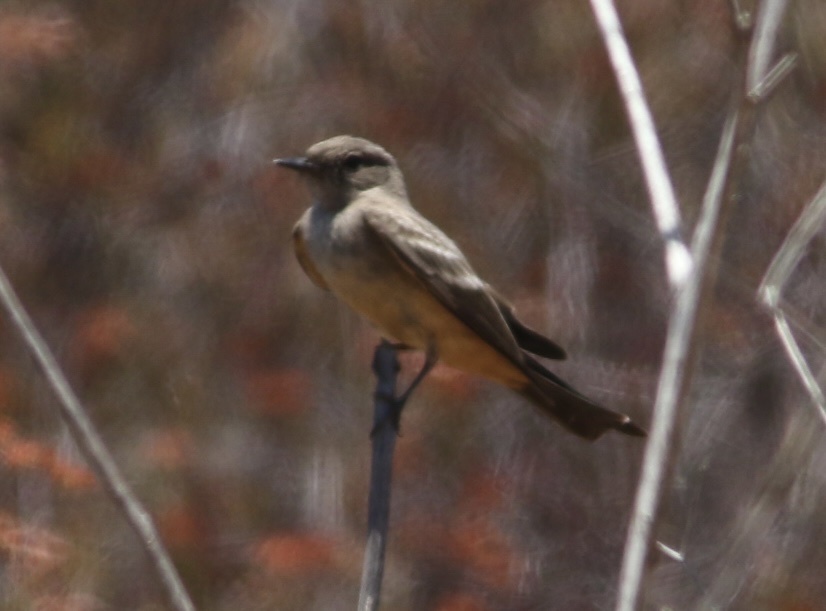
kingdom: Animalia
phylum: Chordata
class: Aves
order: Passeriformes
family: Tyrannidae
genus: Sayornis
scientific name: Sayornis saya
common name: Say's phoebe
